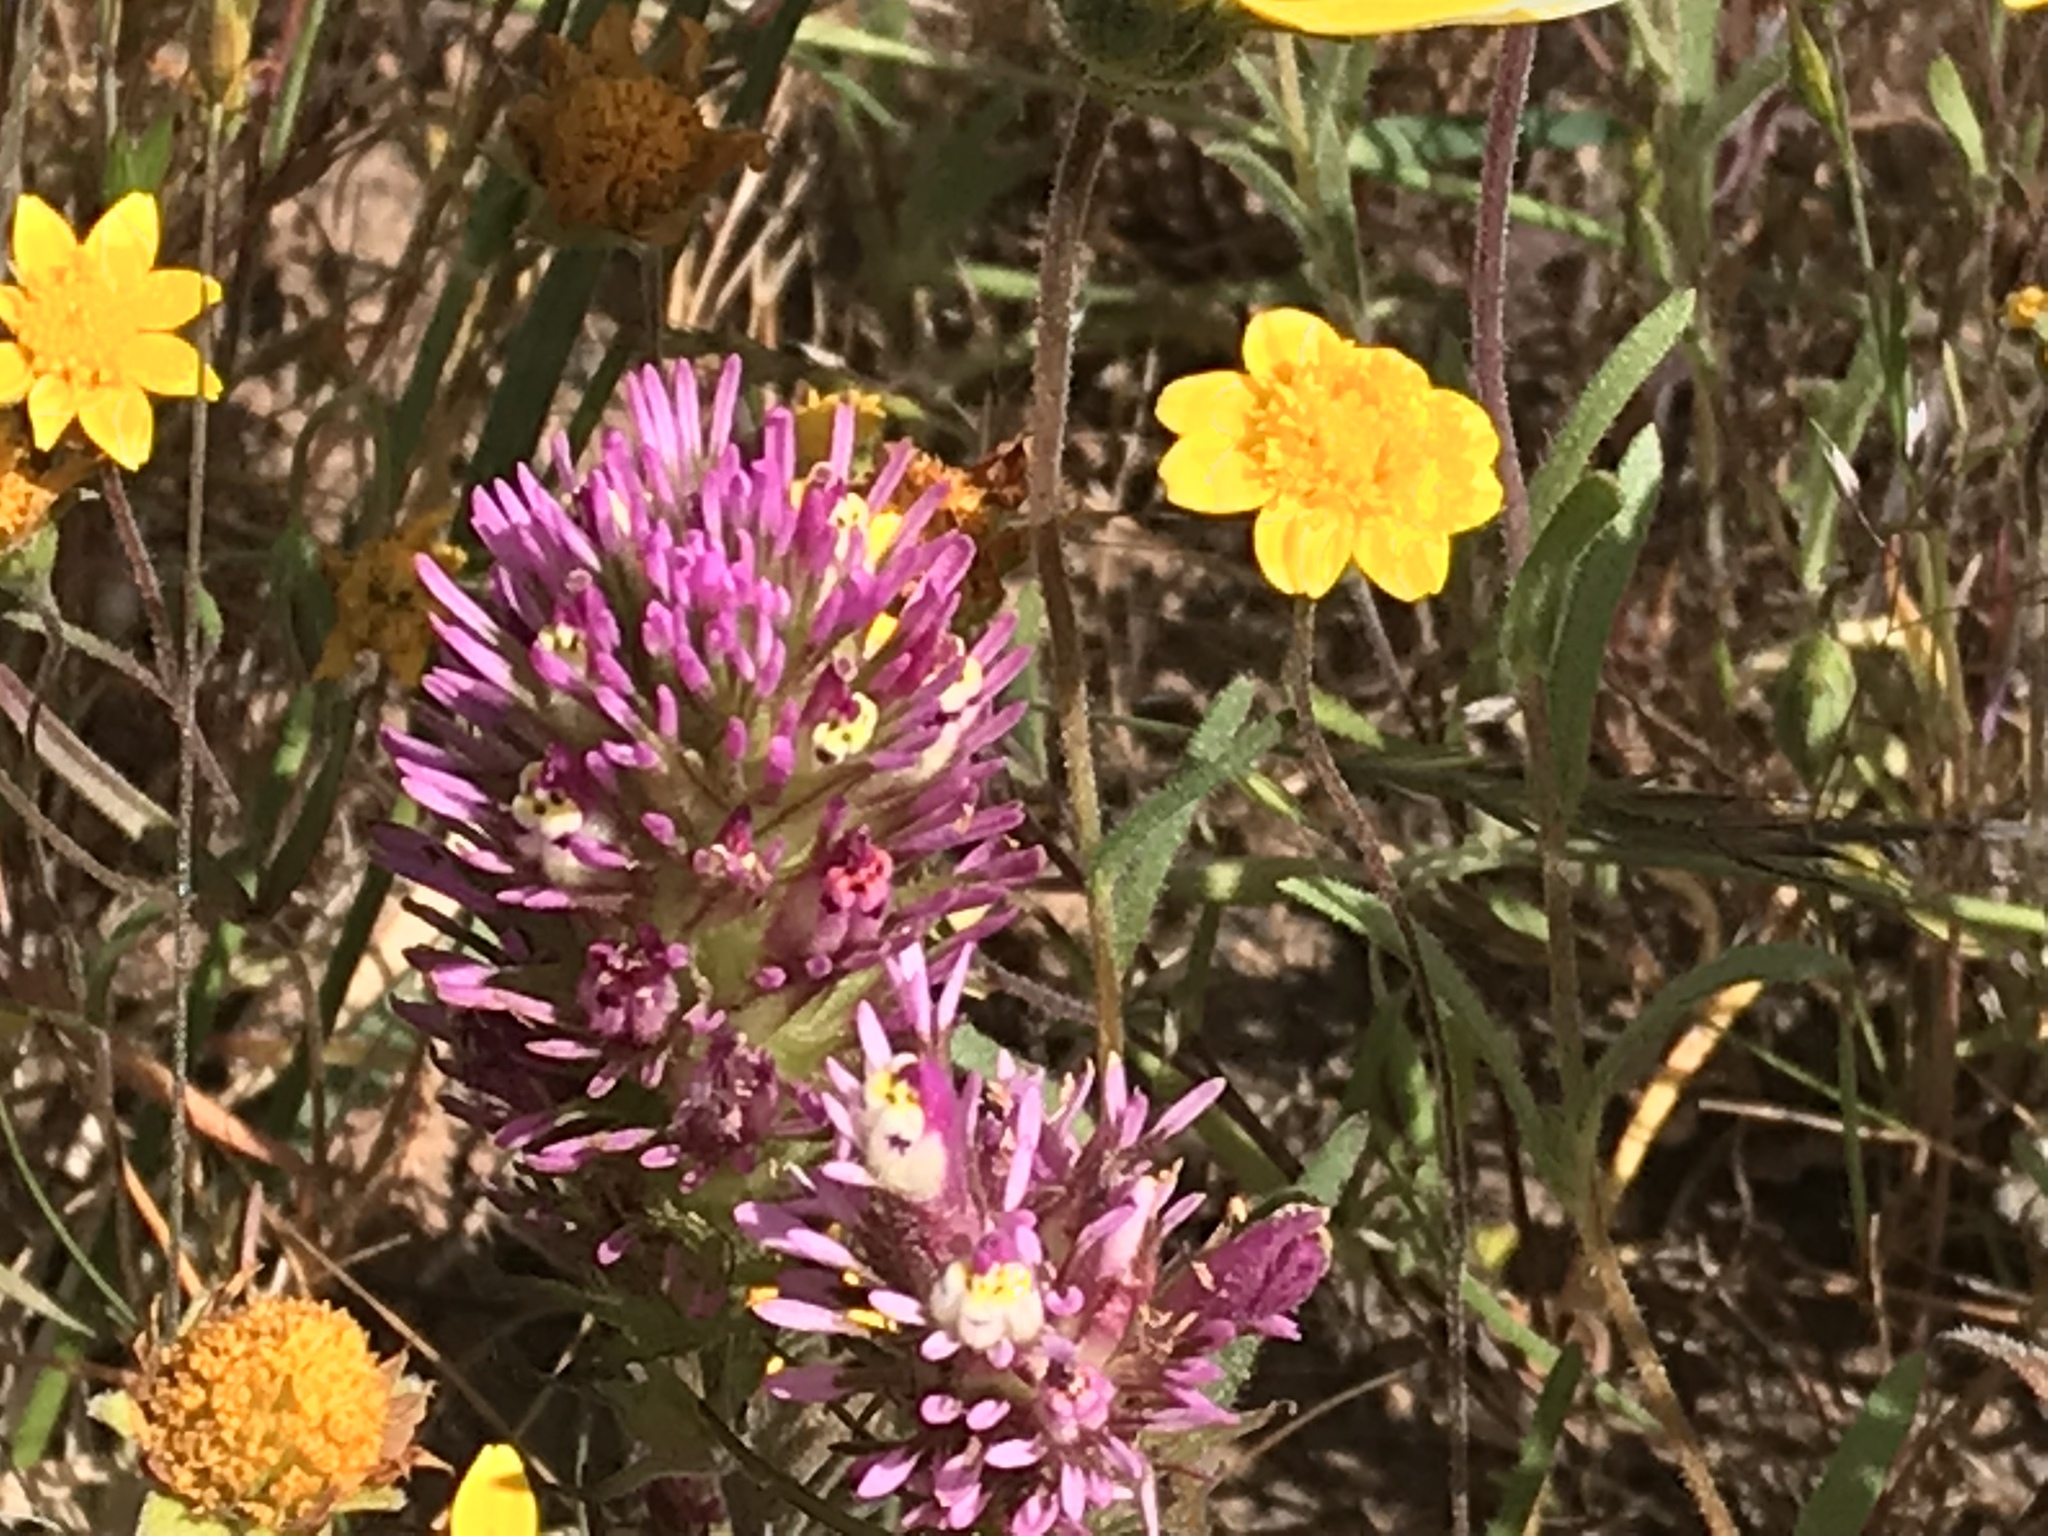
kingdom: Plantae
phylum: Tracheophyta
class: Magnoliopsida
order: Lamiales
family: Orobanchaceae
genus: Castilleja
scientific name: Castilleja densiflora
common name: Dense-flower indian paintbrush
